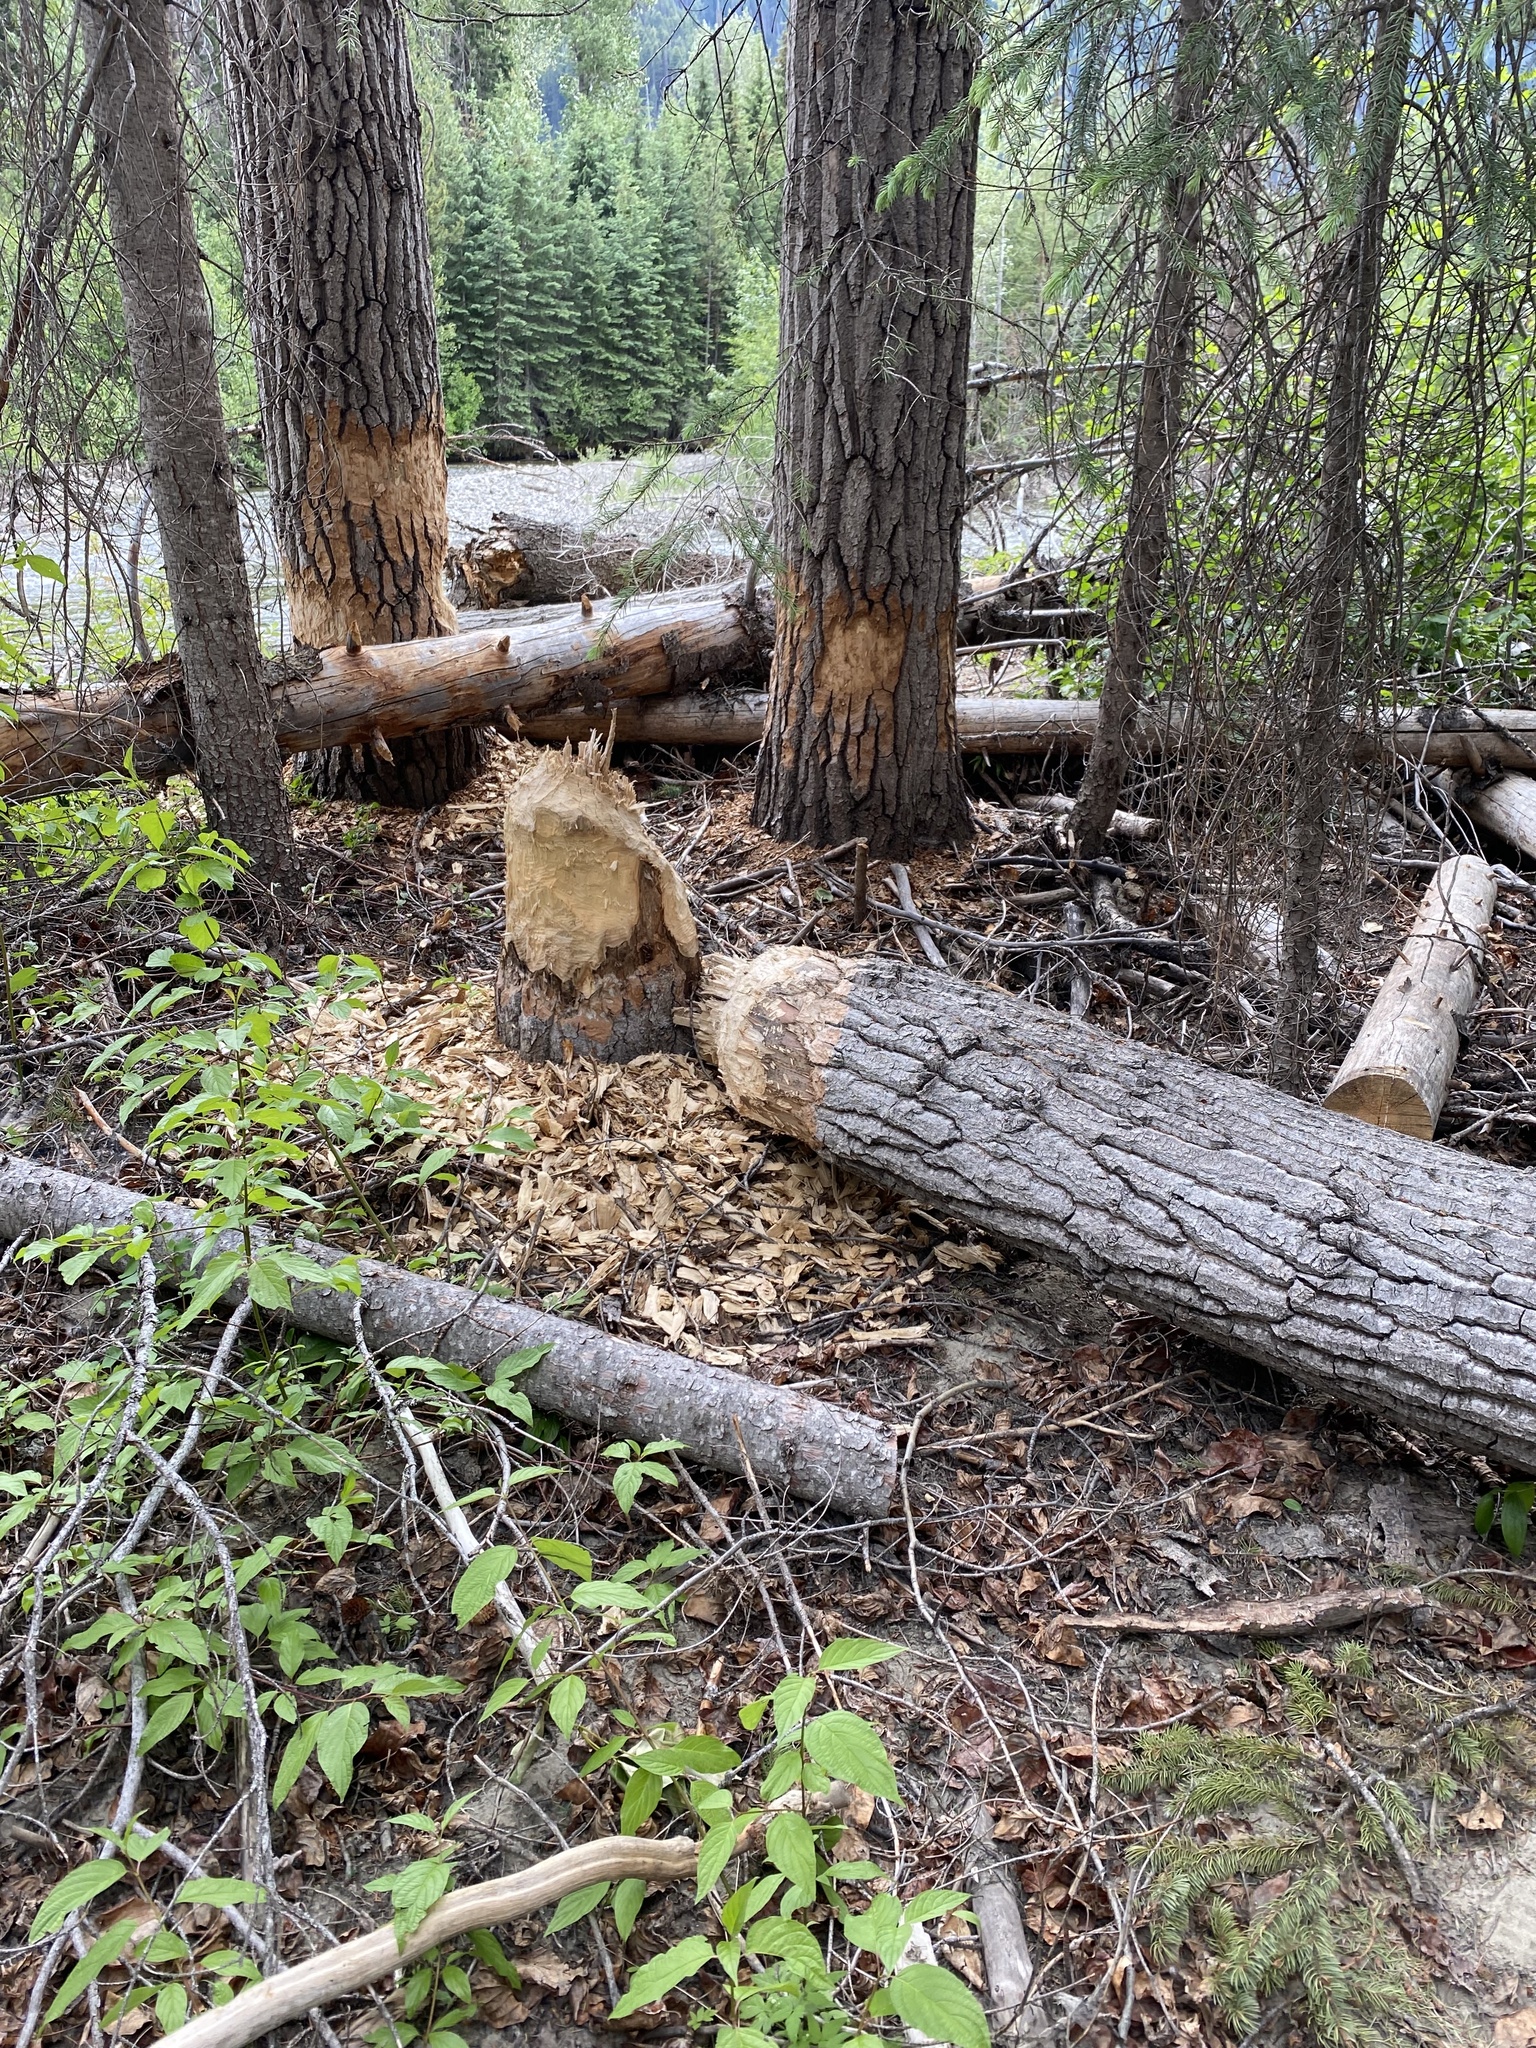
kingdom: Animalia
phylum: Chordata
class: Mammalia
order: Rodentia
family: Castoridae
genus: Castor
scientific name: Castor canadensis
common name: American beaver
